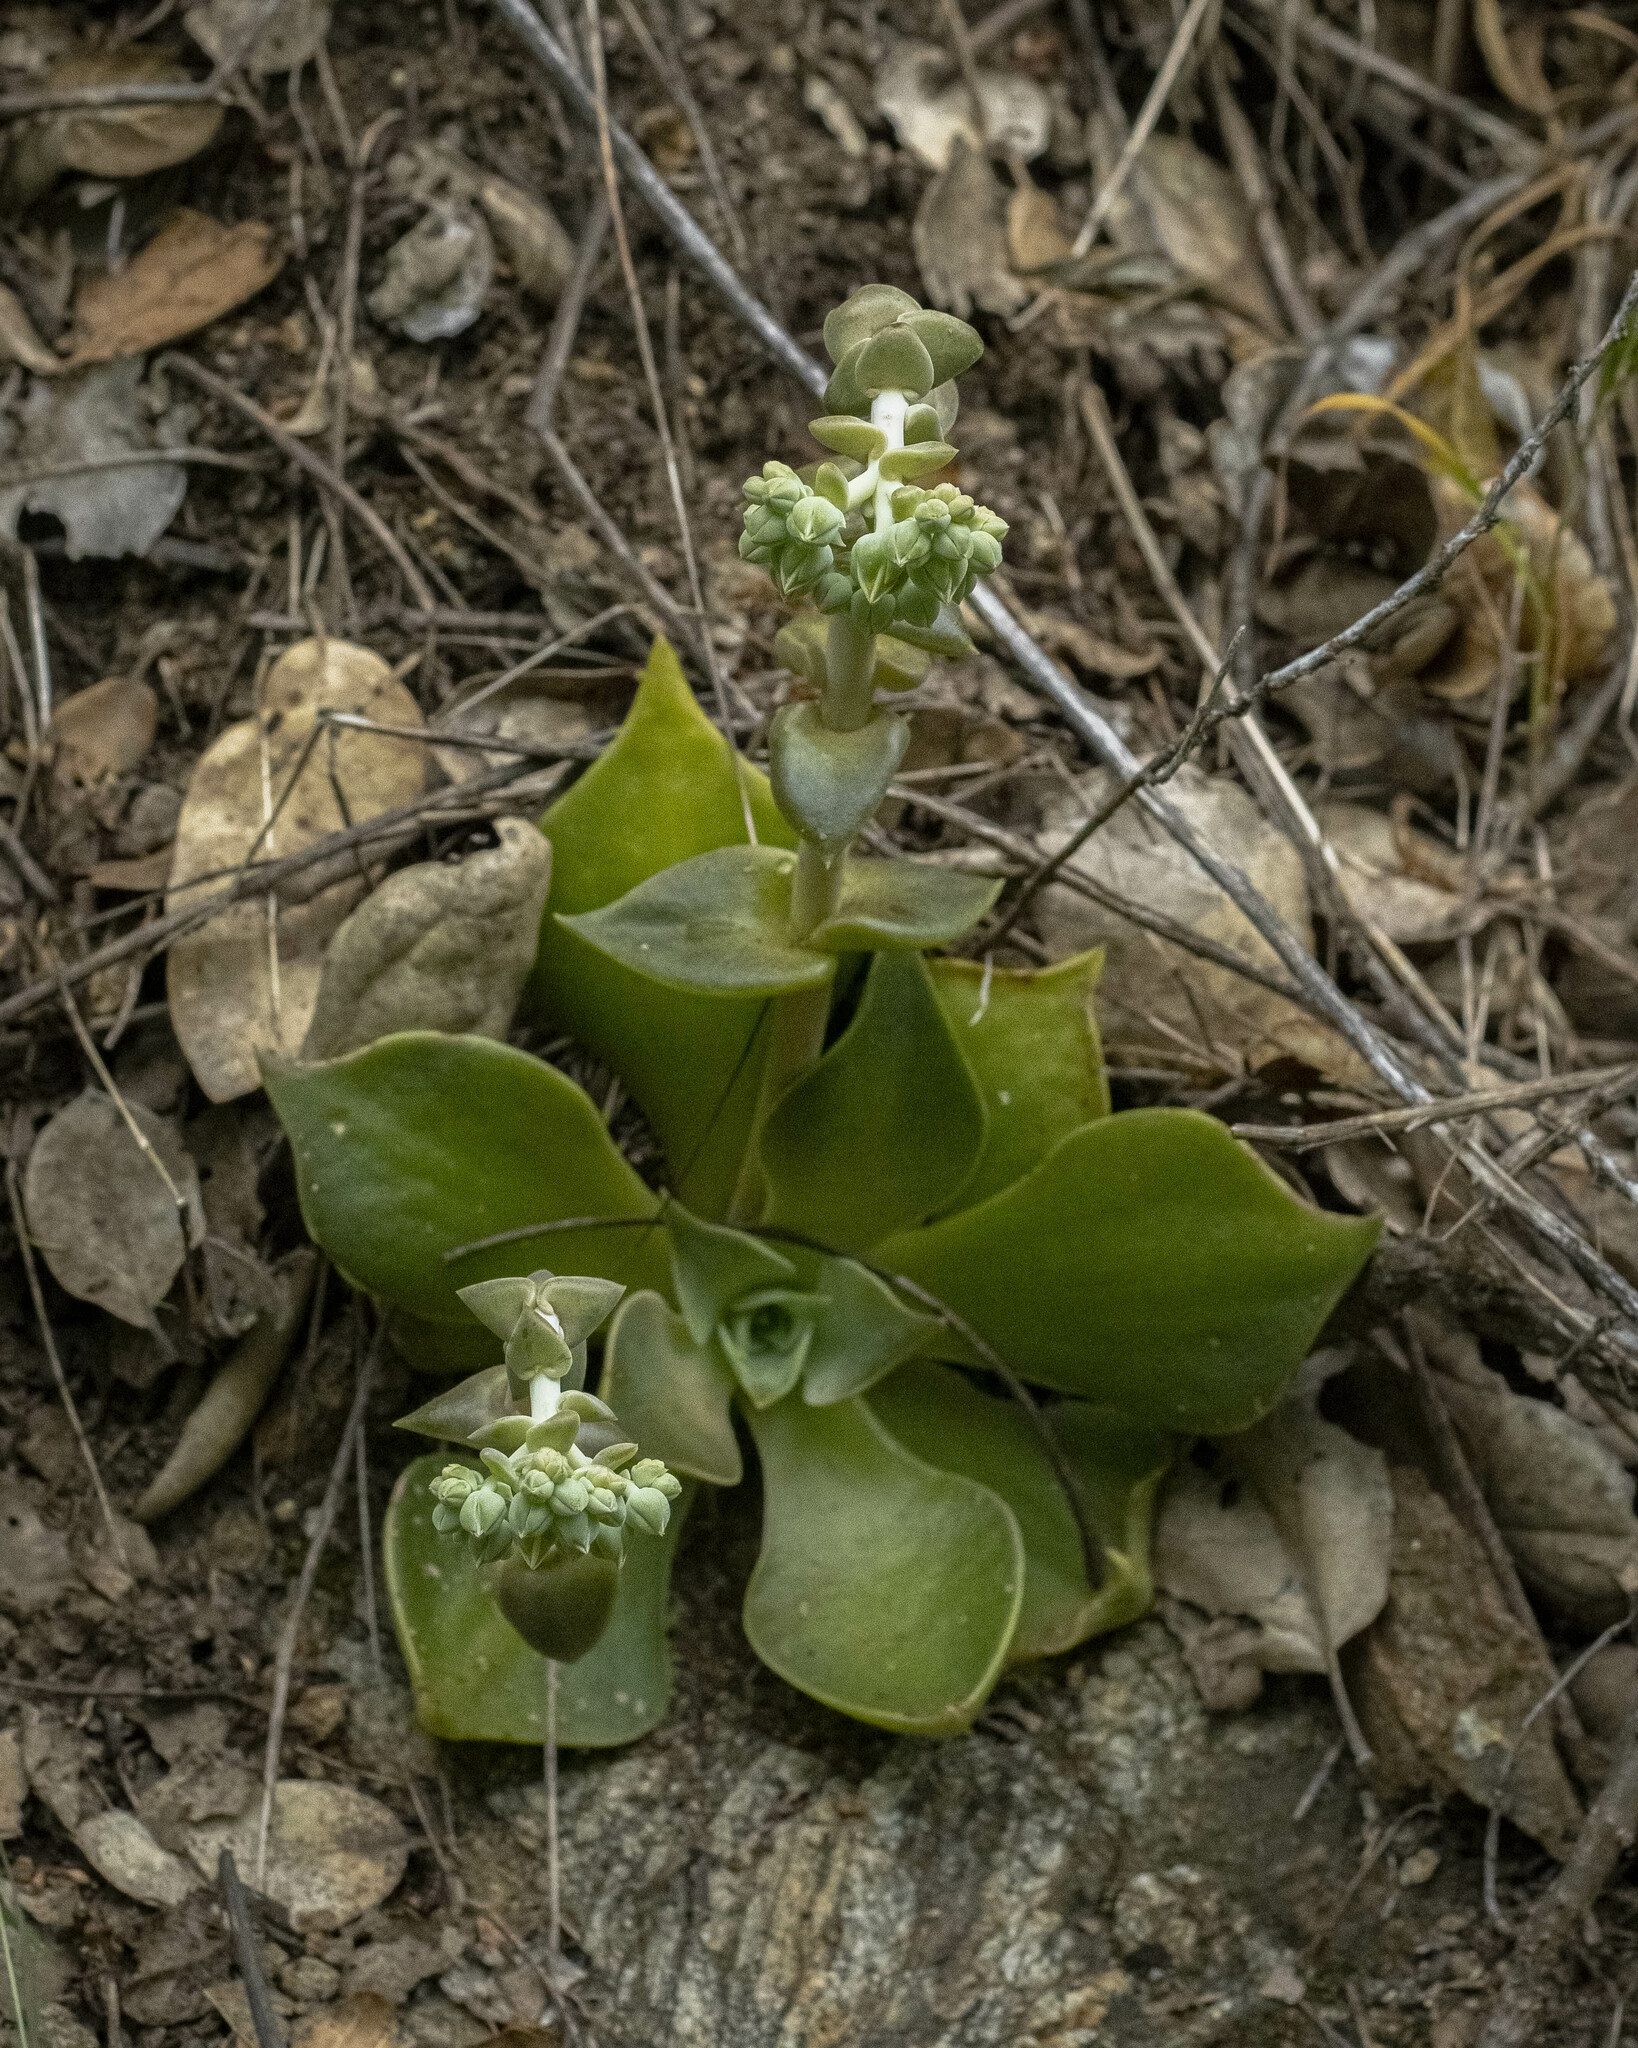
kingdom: Plantae
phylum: Tracheophyta
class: Magnoliopsida
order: Saxifragales
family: Crassulaceae
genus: Dudleya
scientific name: Dudleya cymosa
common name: Canyon dudleya
